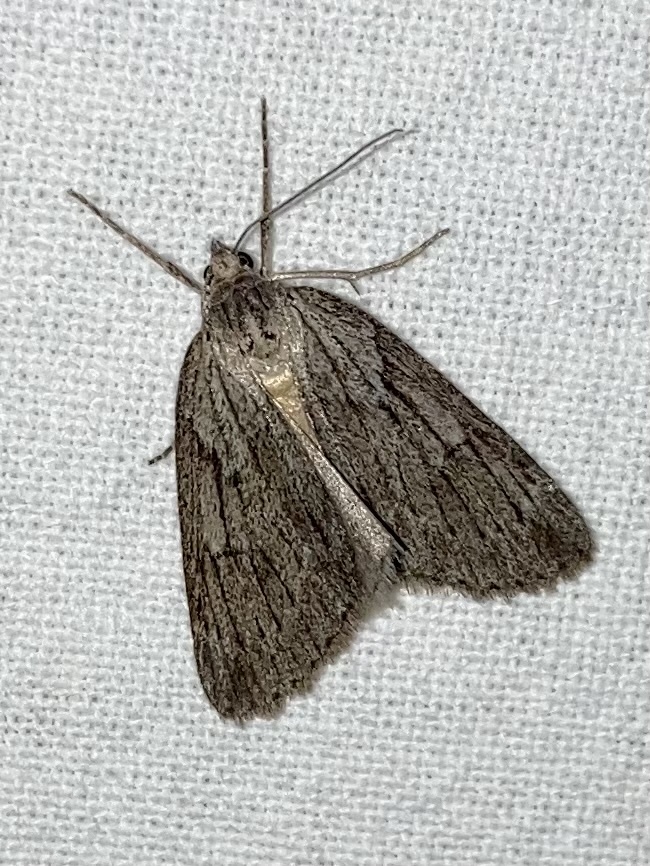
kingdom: Animalia
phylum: Arthropoda
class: Insecta
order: Lepidoptera
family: Geometridae
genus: Pachycnemia
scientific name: Pachycnemia hippocastanaria
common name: Horse chestnut
